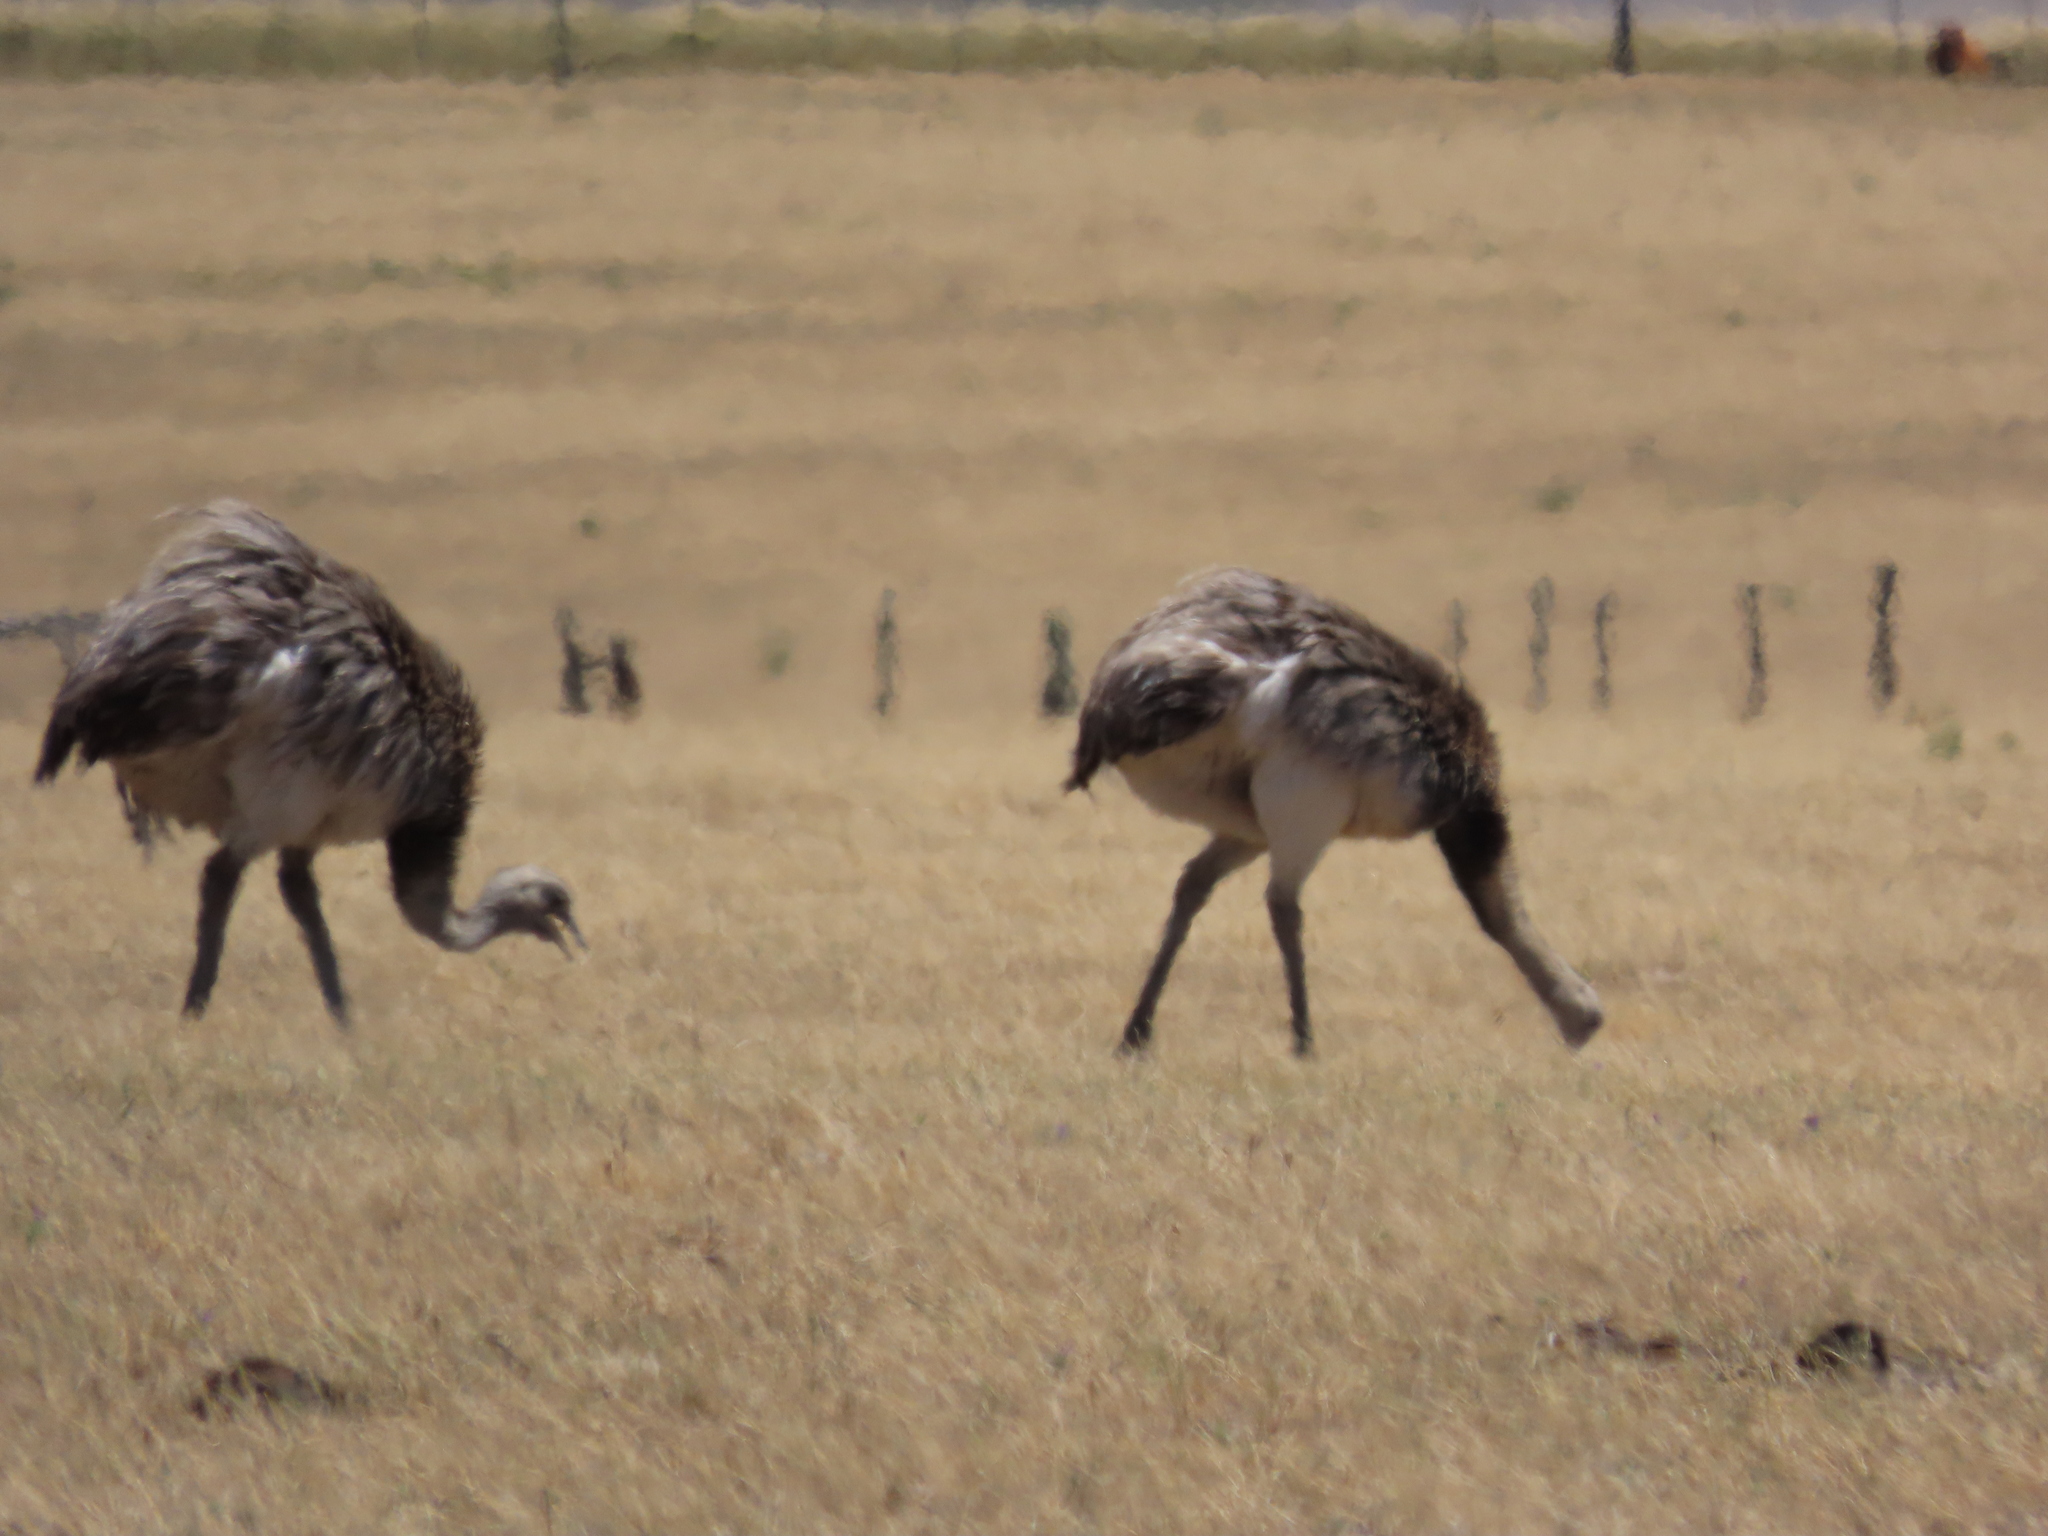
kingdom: Animalia
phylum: Chordata
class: Aves
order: Rheiformes
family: Rheidae
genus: Rhea
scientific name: Rhea americana
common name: Greater rhea
